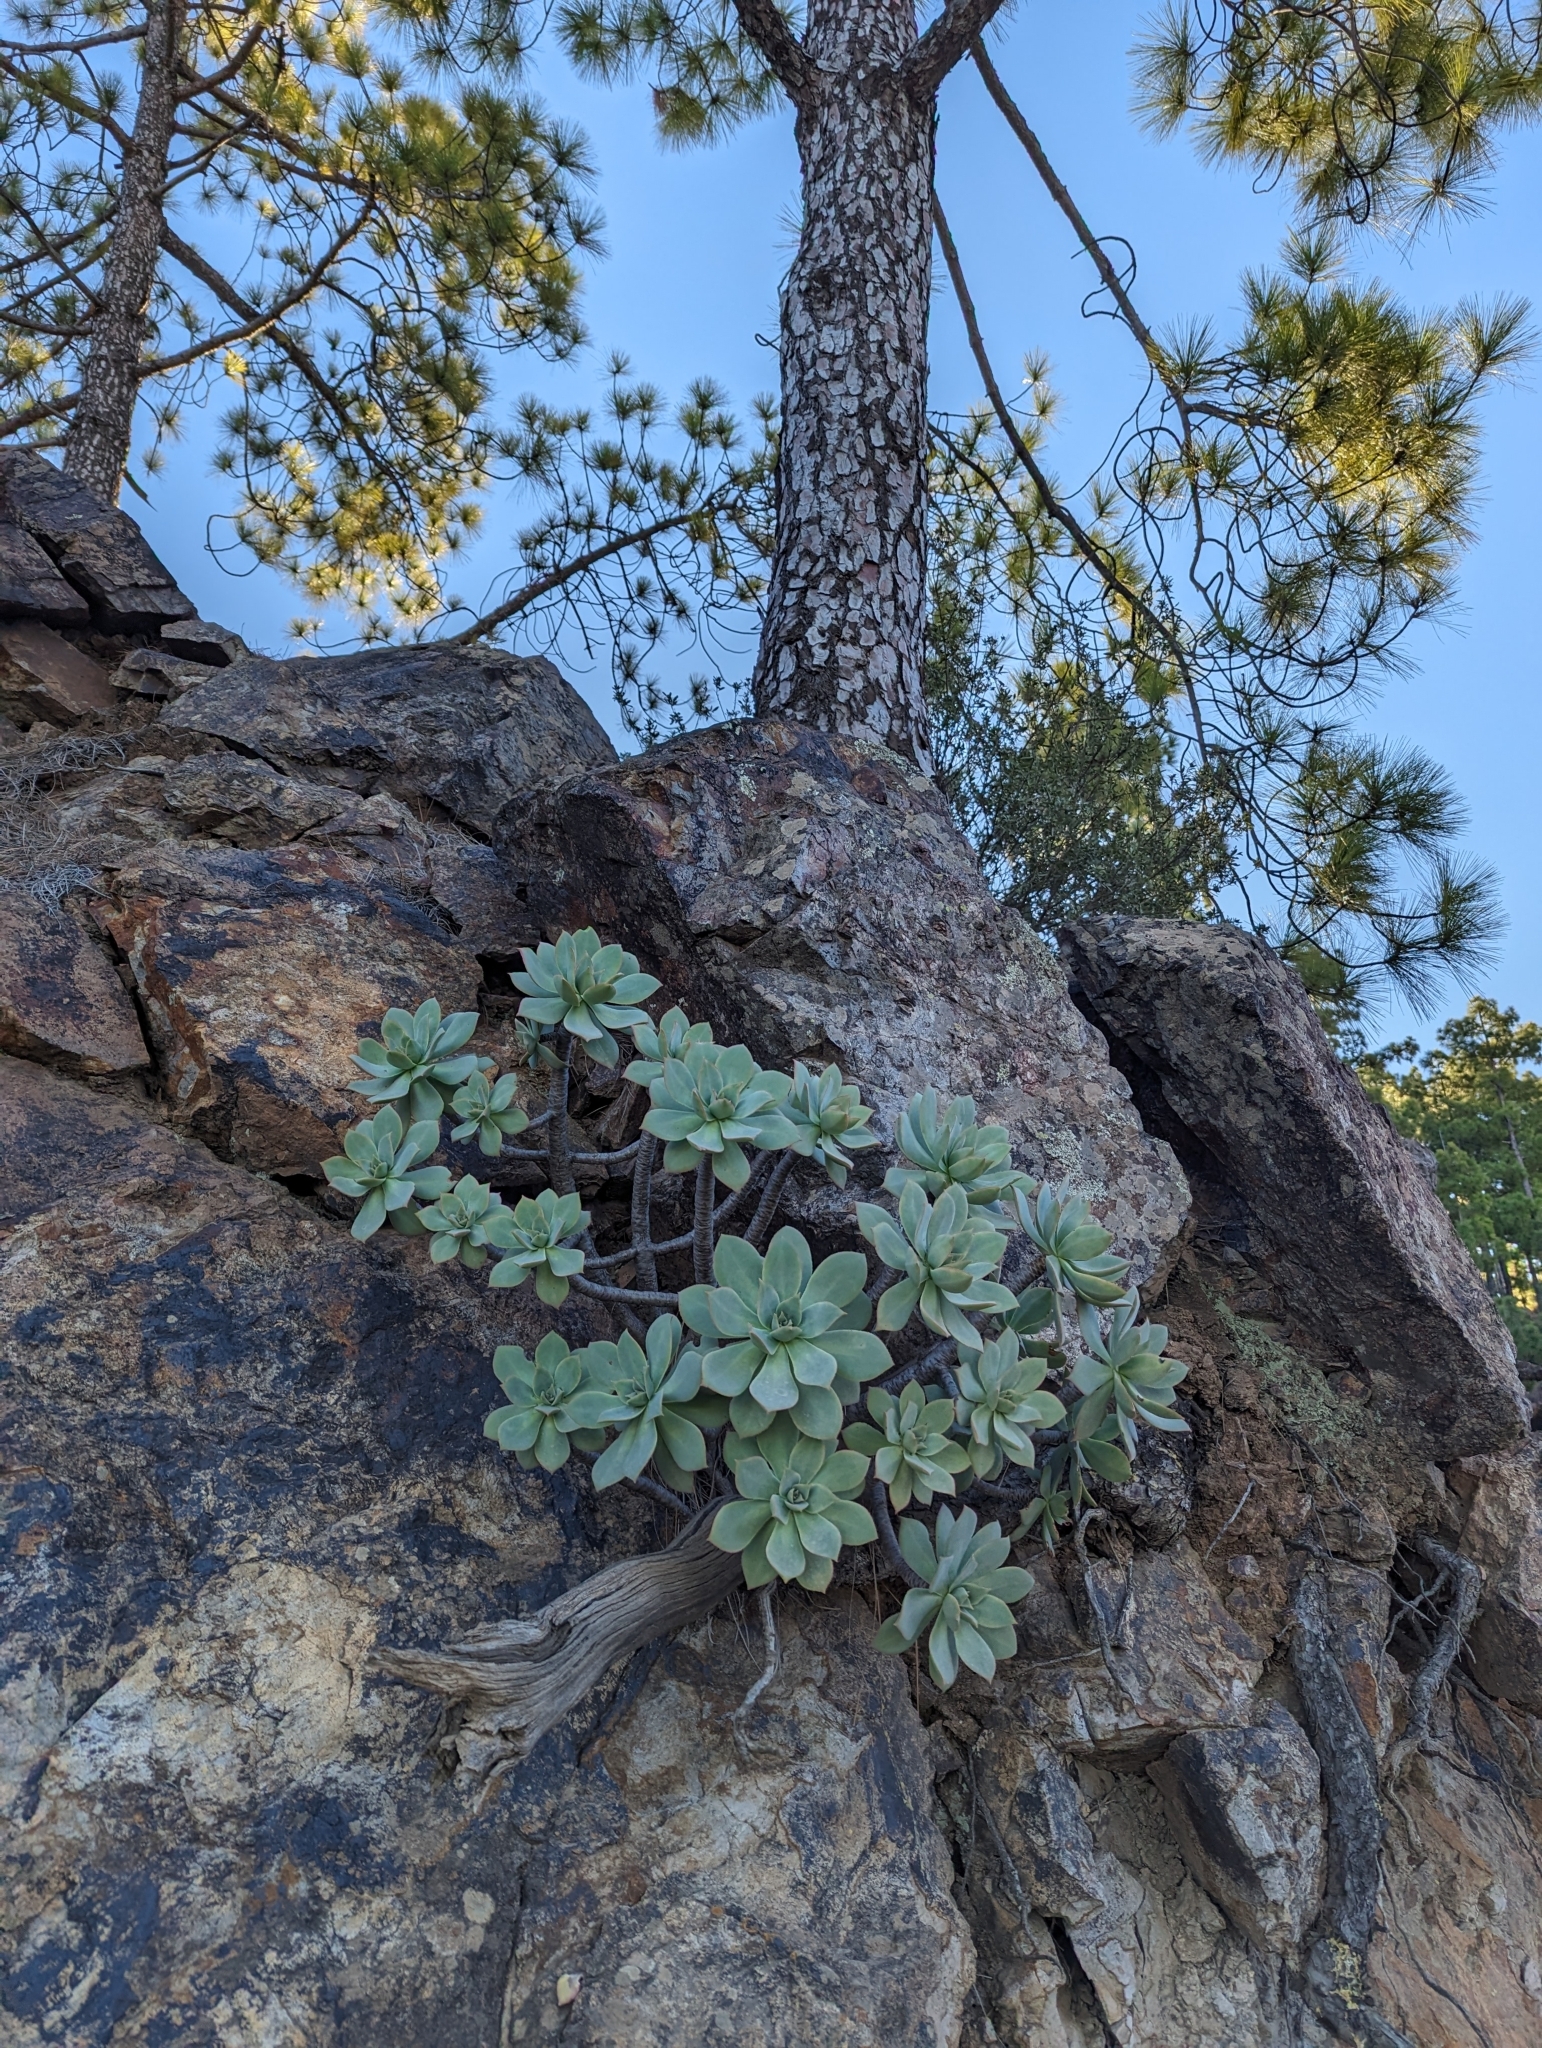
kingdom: Plantae
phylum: Tracheophyta
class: Magnoliopsida
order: Saxifragales
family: Crassulaceae
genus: Aeonium
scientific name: Aeonium percarneum
